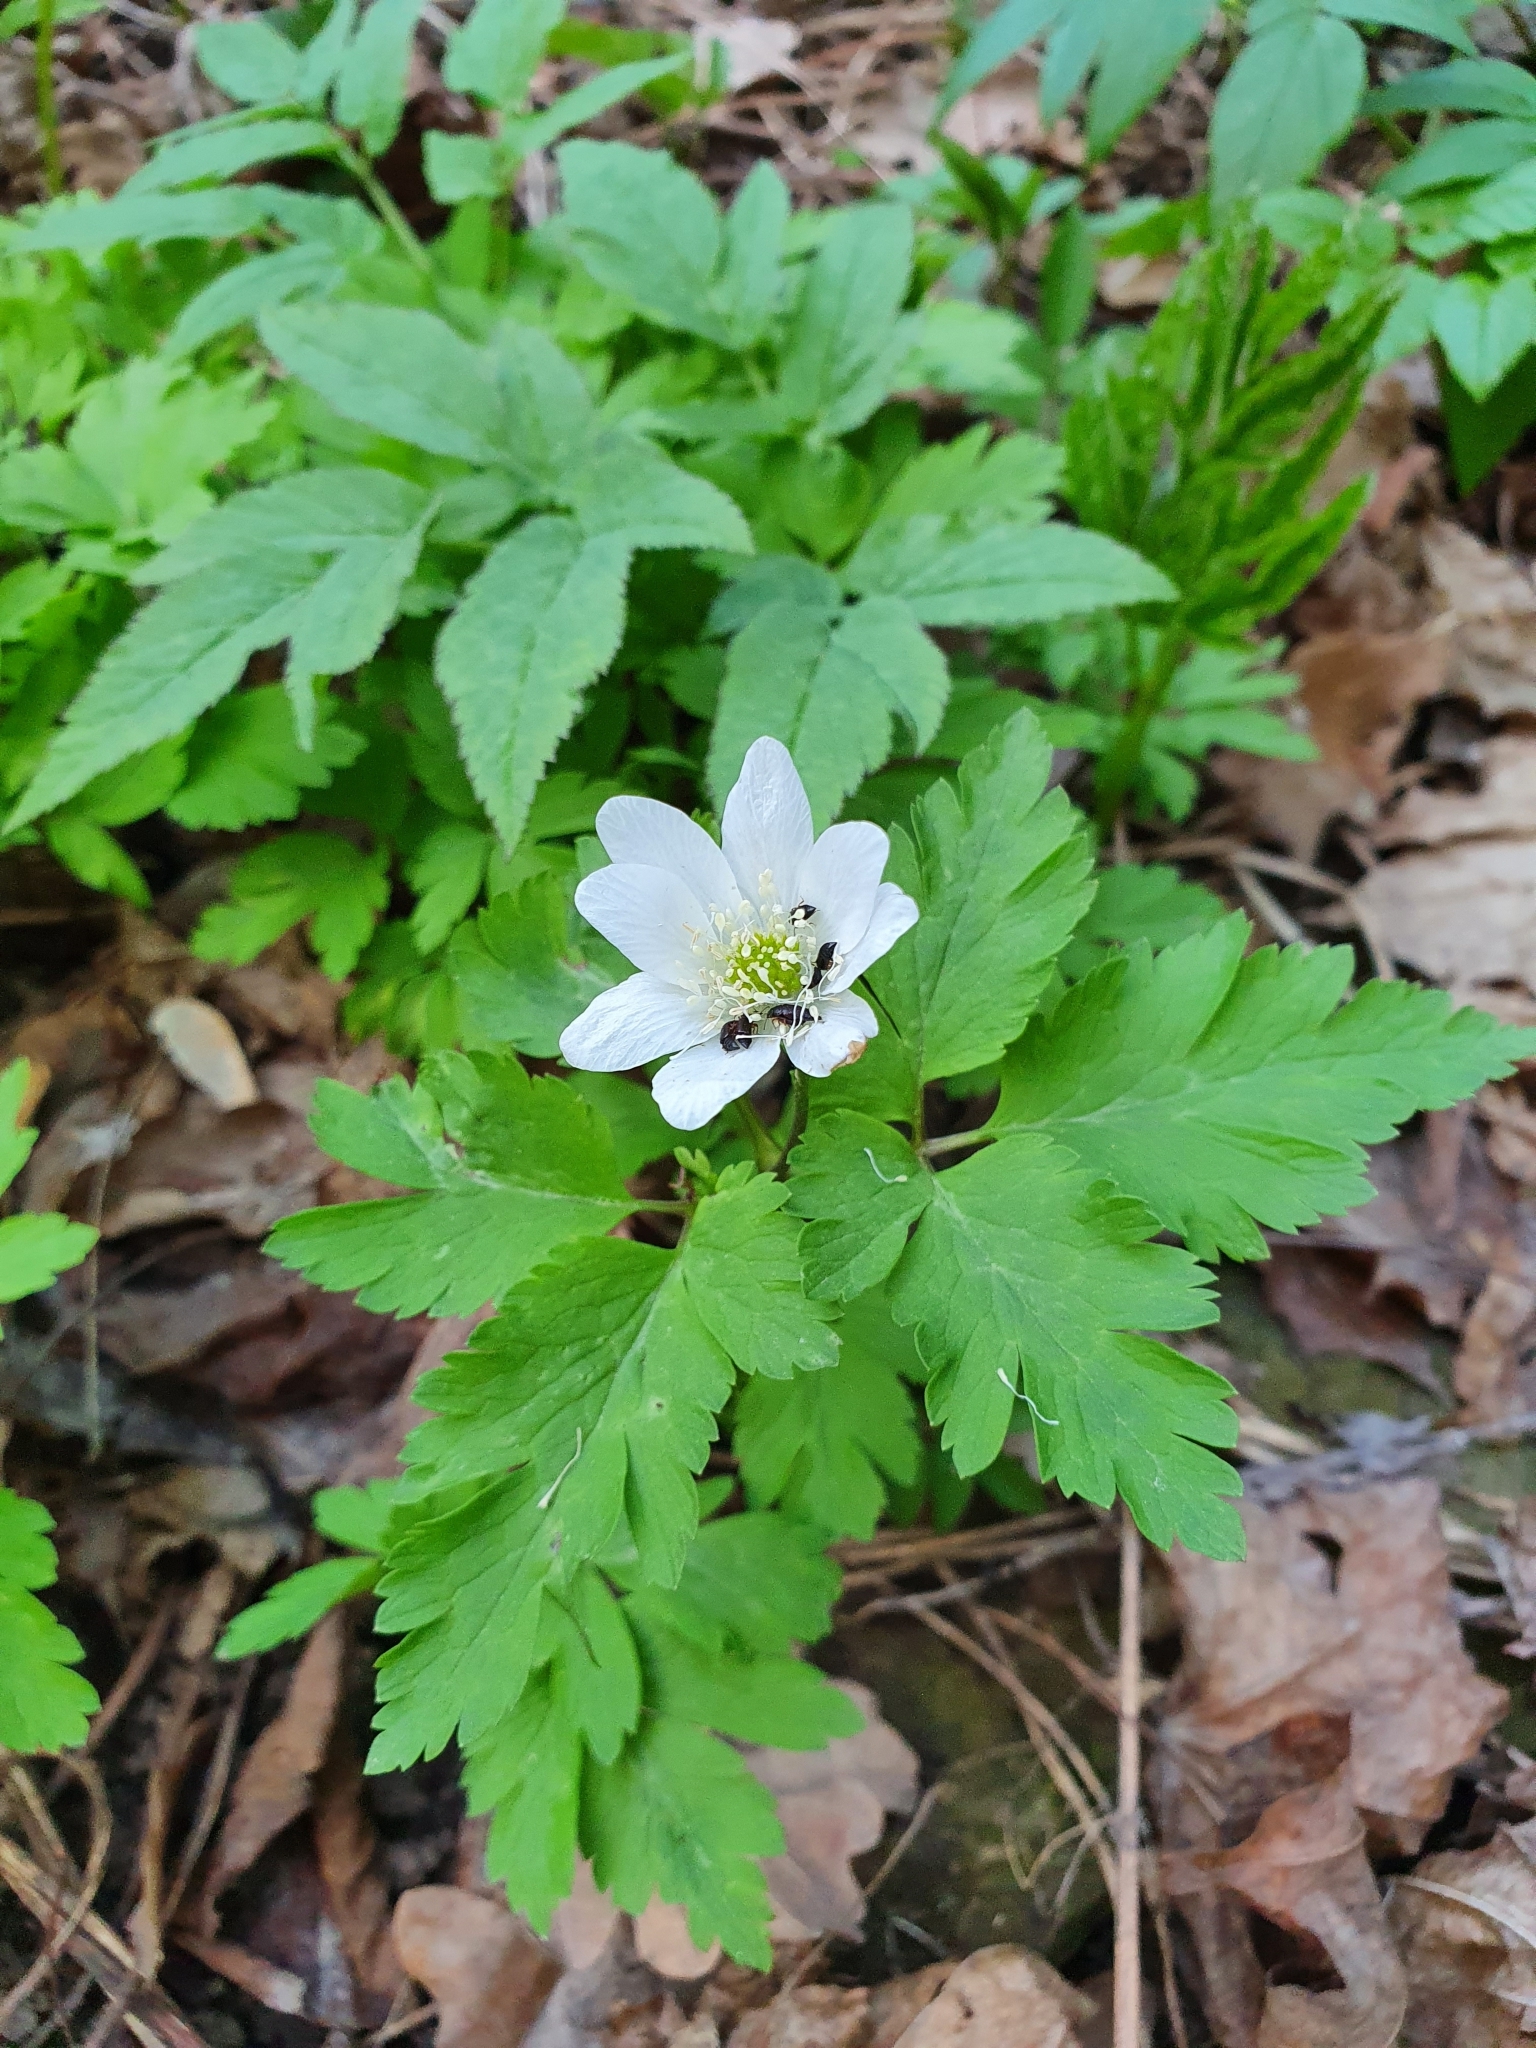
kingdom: Plantae
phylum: Tracheophyta
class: Magnoliopsida
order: Ranunculales
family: Ranunculaceae
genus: Anemone
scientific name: Anemone altaica
